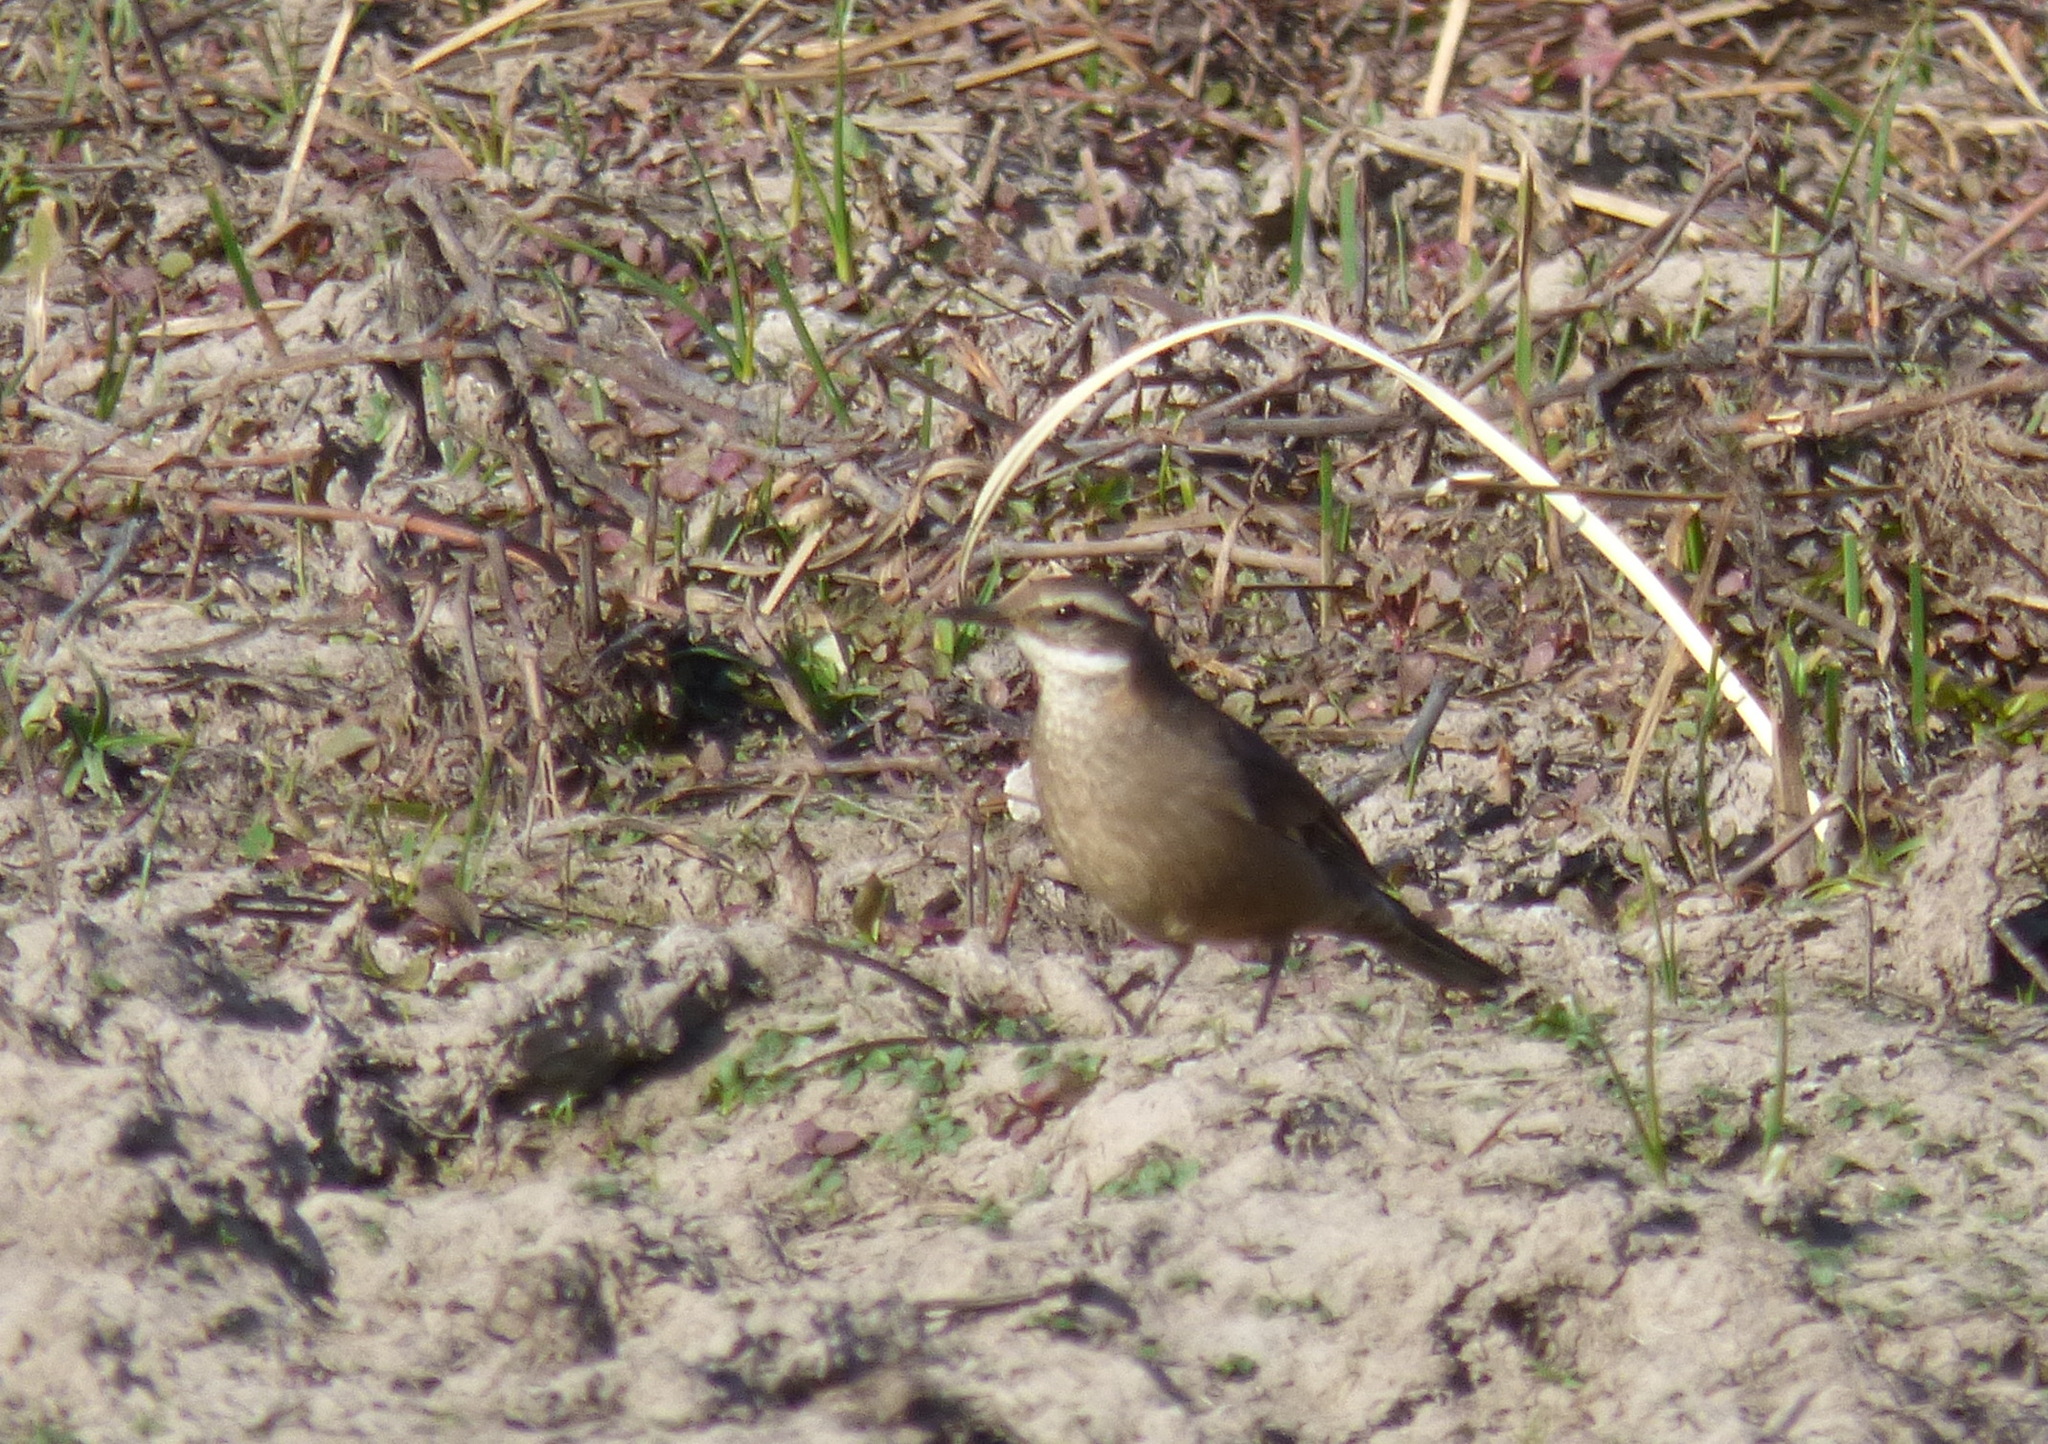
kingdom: Animalia
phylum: Chordata
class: Aves
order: Passeriformes
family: Furnariidae
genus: Cinclodes
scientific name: Cinclodes fuscus
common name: Buff-winged cinclodes
